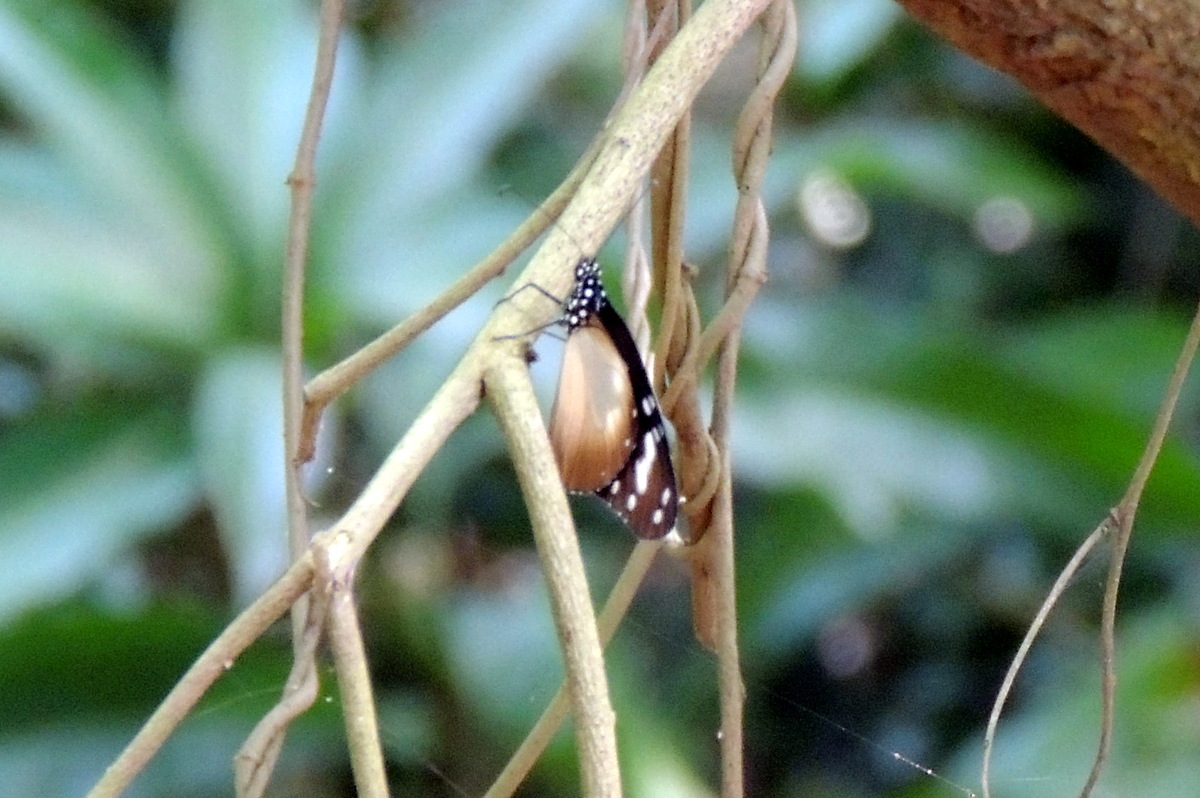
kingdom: Animalia
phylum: Arthropoda
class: Insecta
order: Lepidoptera
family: Nymphalidae
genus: Amauris
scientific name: Amauris damocles
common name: Small monk
